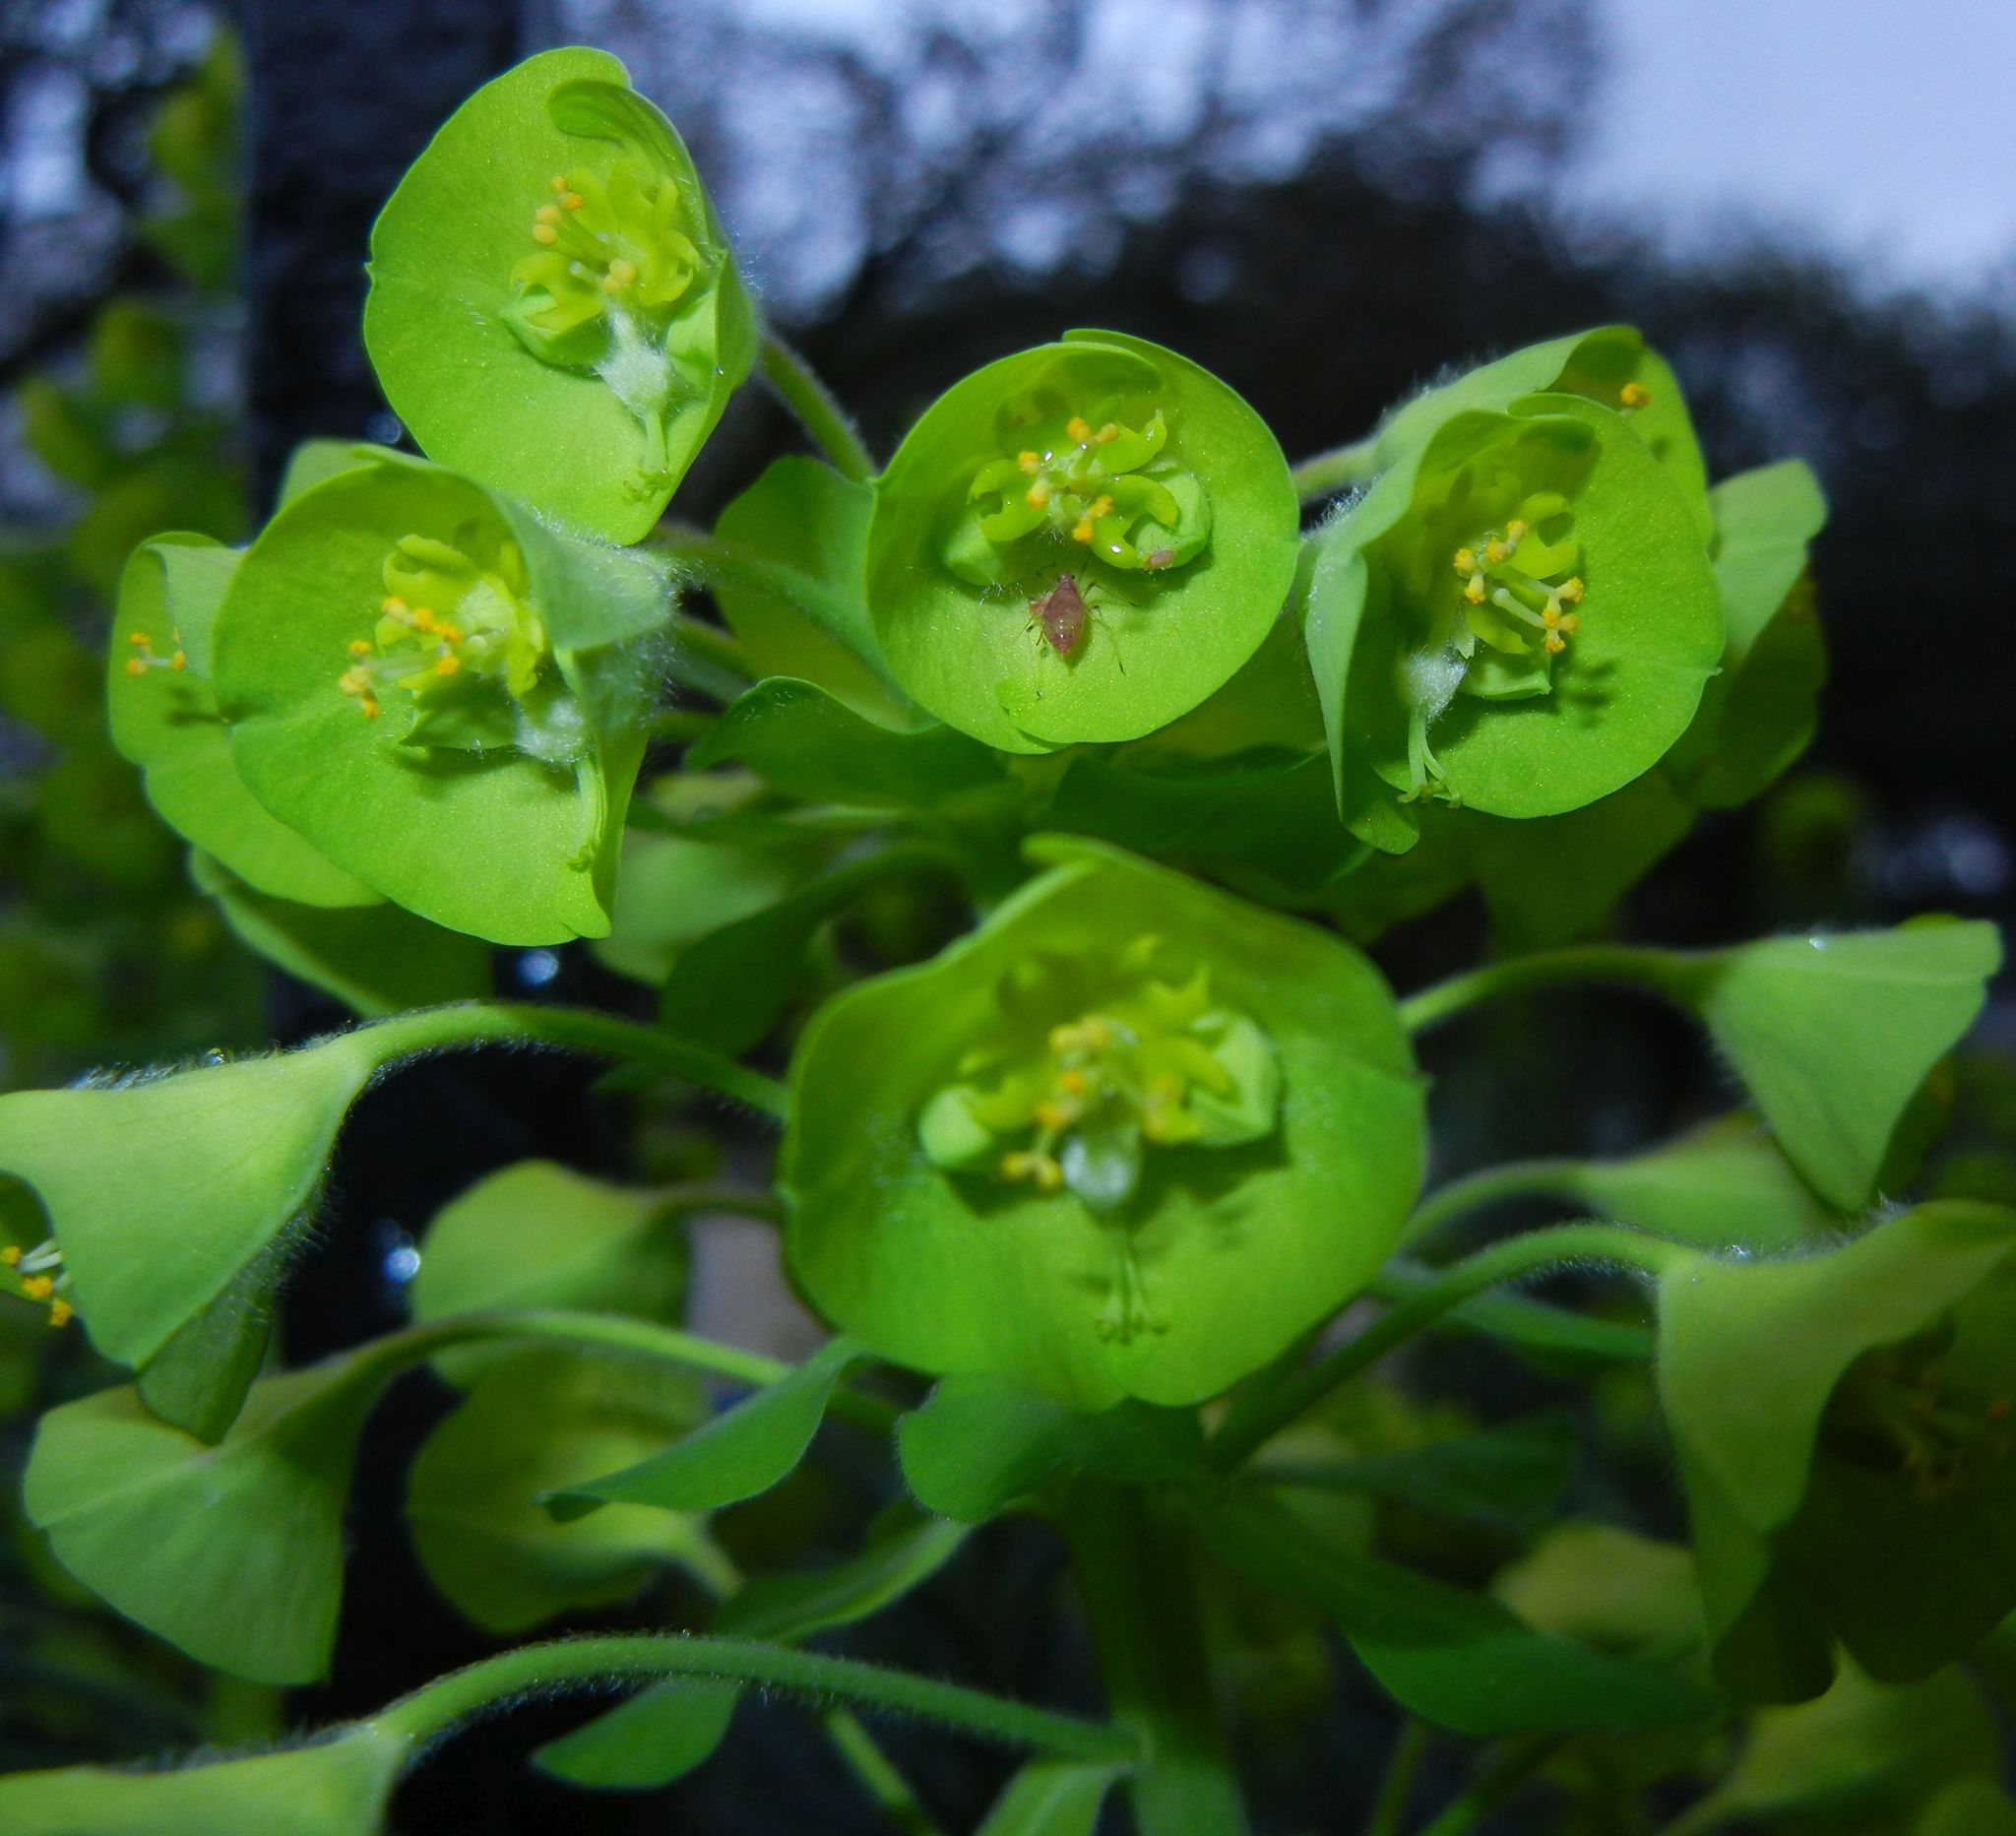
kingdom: Plantae
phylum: Tracheophyta
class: Magnoliopsida
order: Malpighiales
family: Euphorbiaceae
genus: Euphorbia
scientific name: Euphorbia amygdaloides
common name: Wood spurge
